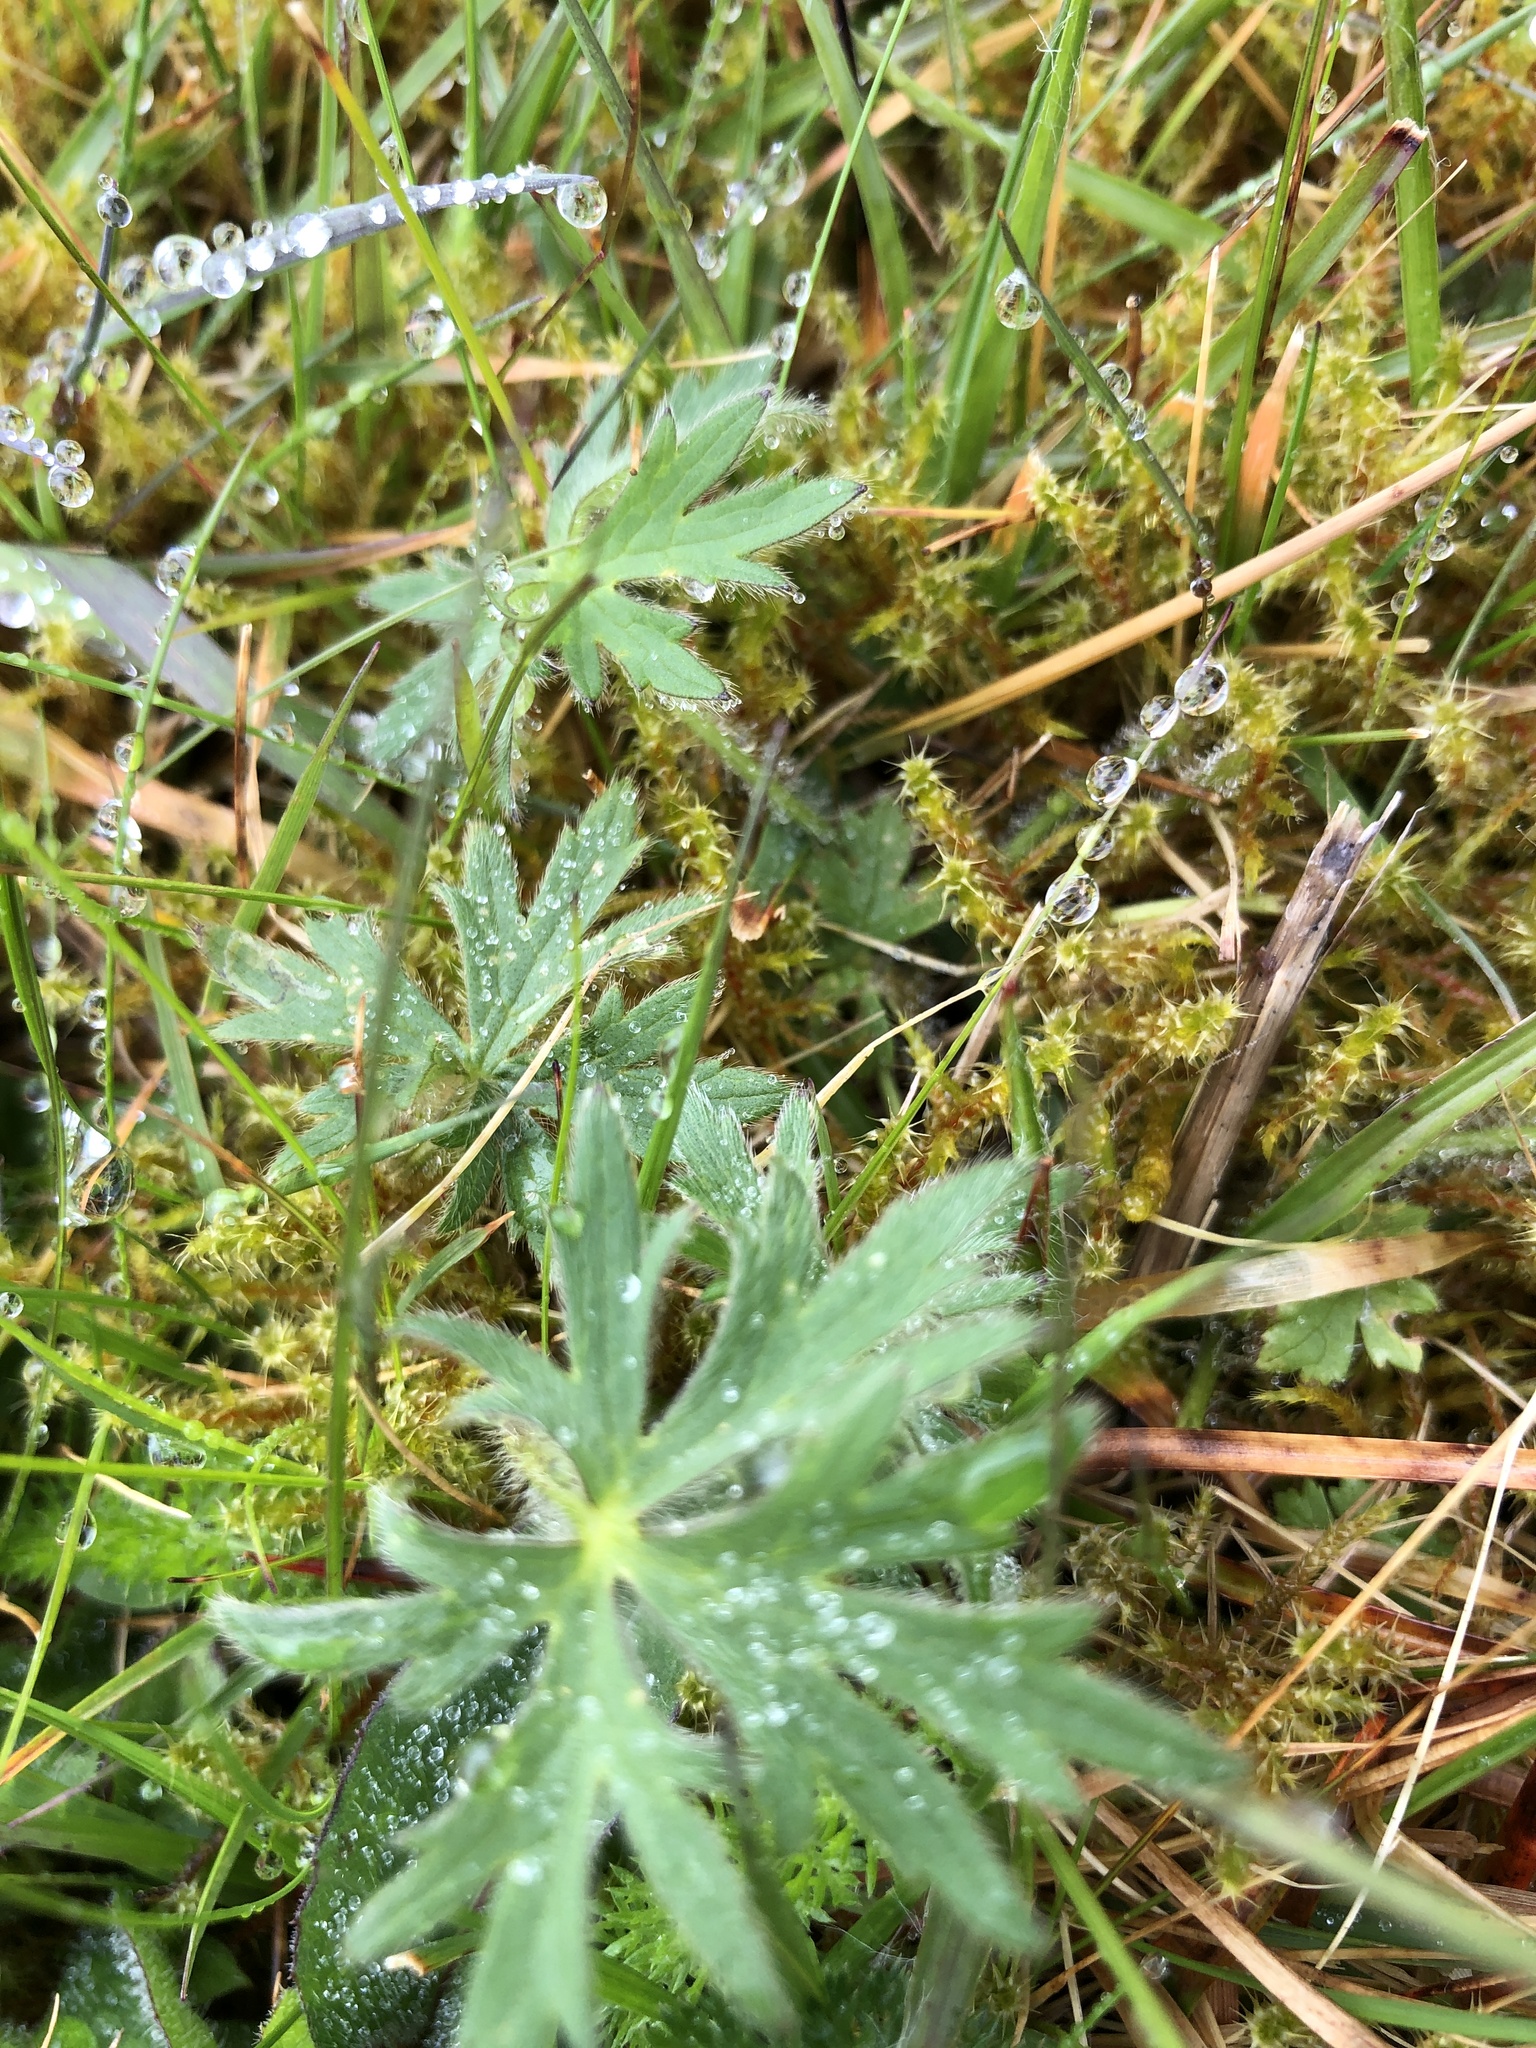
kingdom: Plantae
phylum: Tracheophyta
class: Magnoliopsida
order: Ranunculales
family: Ranunculaceae
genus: Ranunculus
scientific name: Ranunculus bulbosus
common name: Bulbous buttercup
